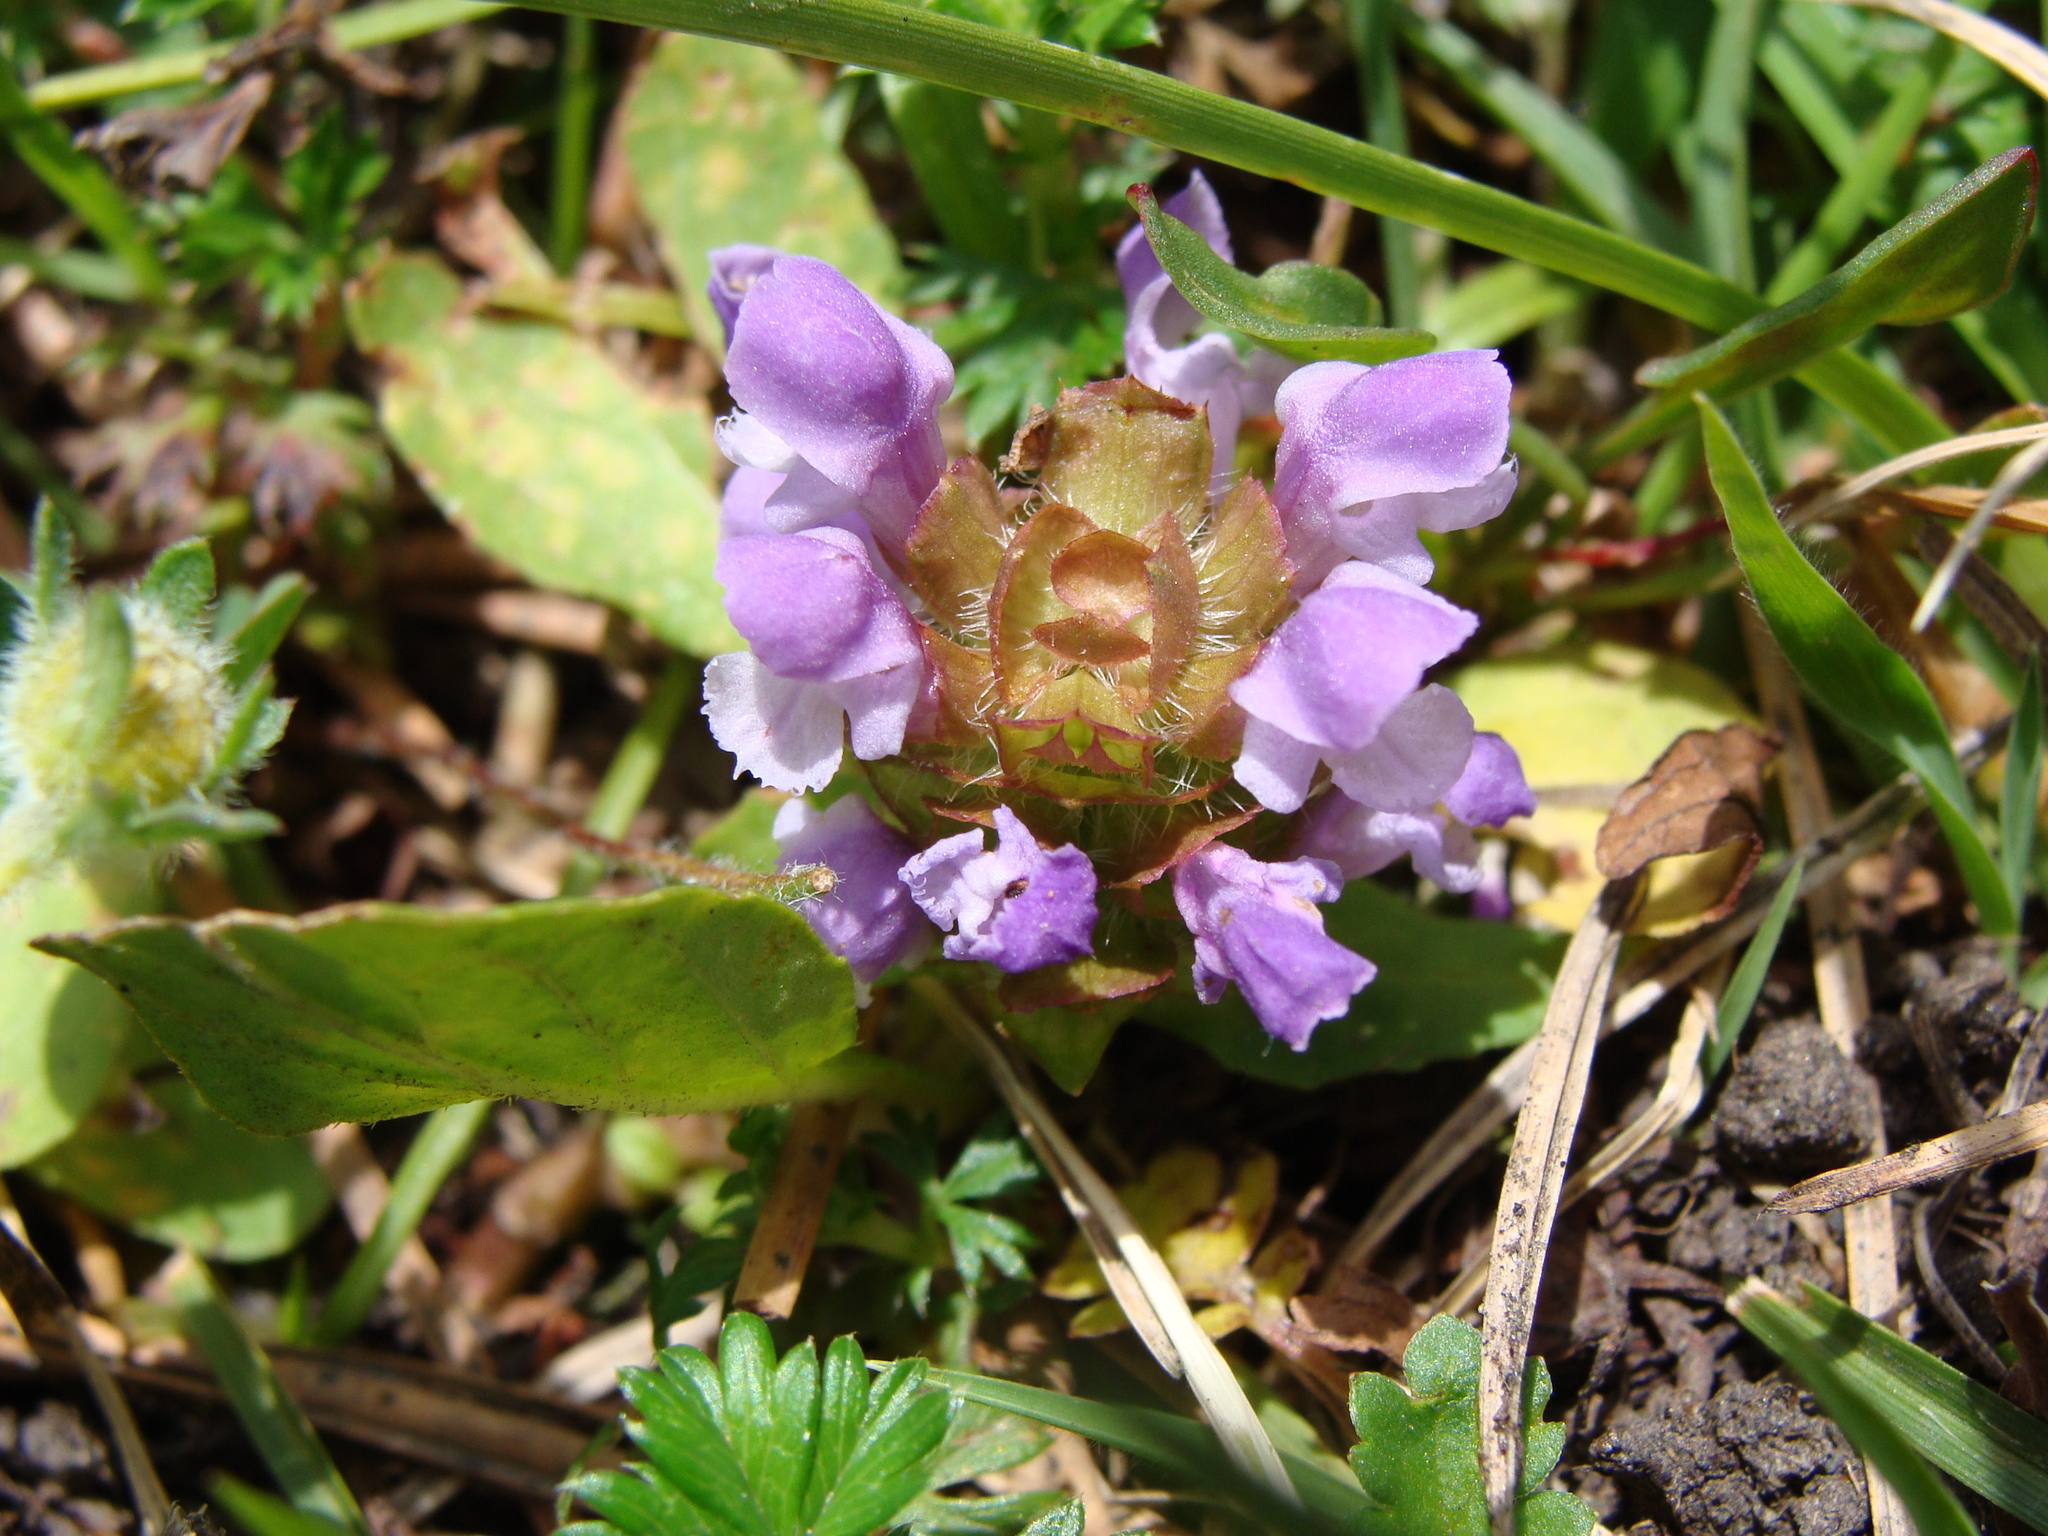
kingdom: Plantae
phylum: Tracheophyta
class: Magnoliopsida
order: Lamiales
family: Lamiaceae
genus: Prunella
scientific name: Prunella vulgaris
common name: Heal-all
